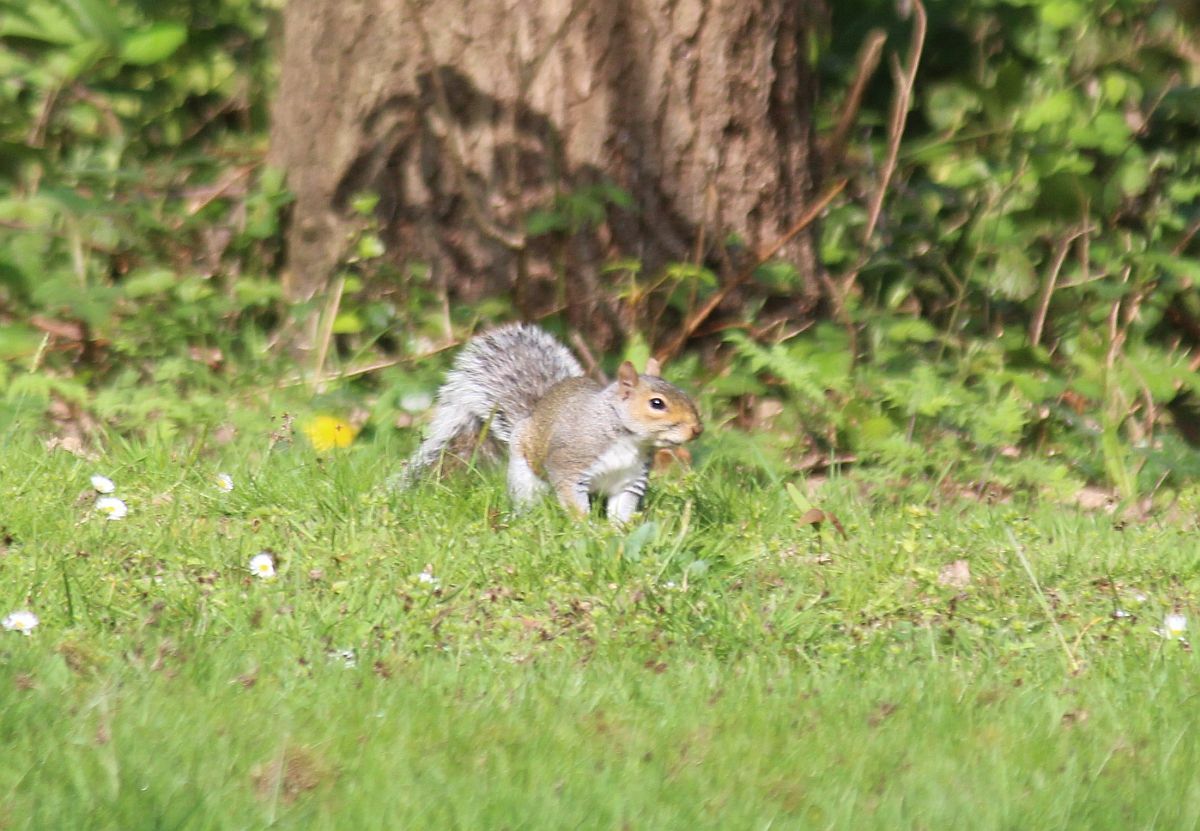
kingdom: Animalia
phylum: Chordata
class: Mammalia
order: Rodentia
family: Sciuridae
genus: Sciurus
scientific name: Sciurus carolinensis
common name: Eastern gray squirrel
